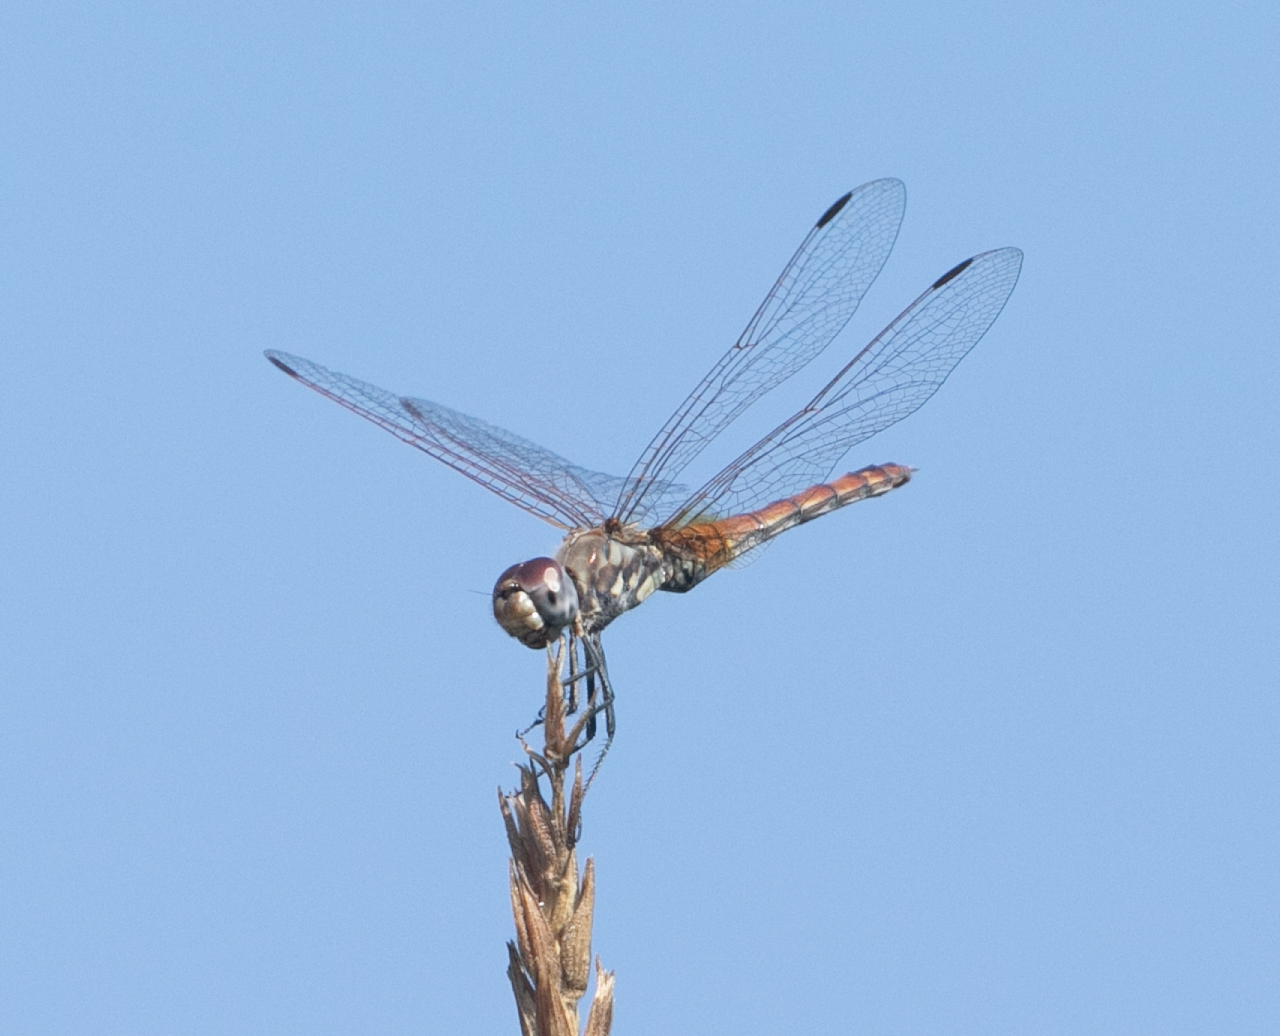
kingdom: Animalia
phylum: Arthropoda
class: Insecta
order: Odonata
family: Libellulidae
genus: Trithemis
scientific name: Trithemis annulata
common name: Violet dropwing
